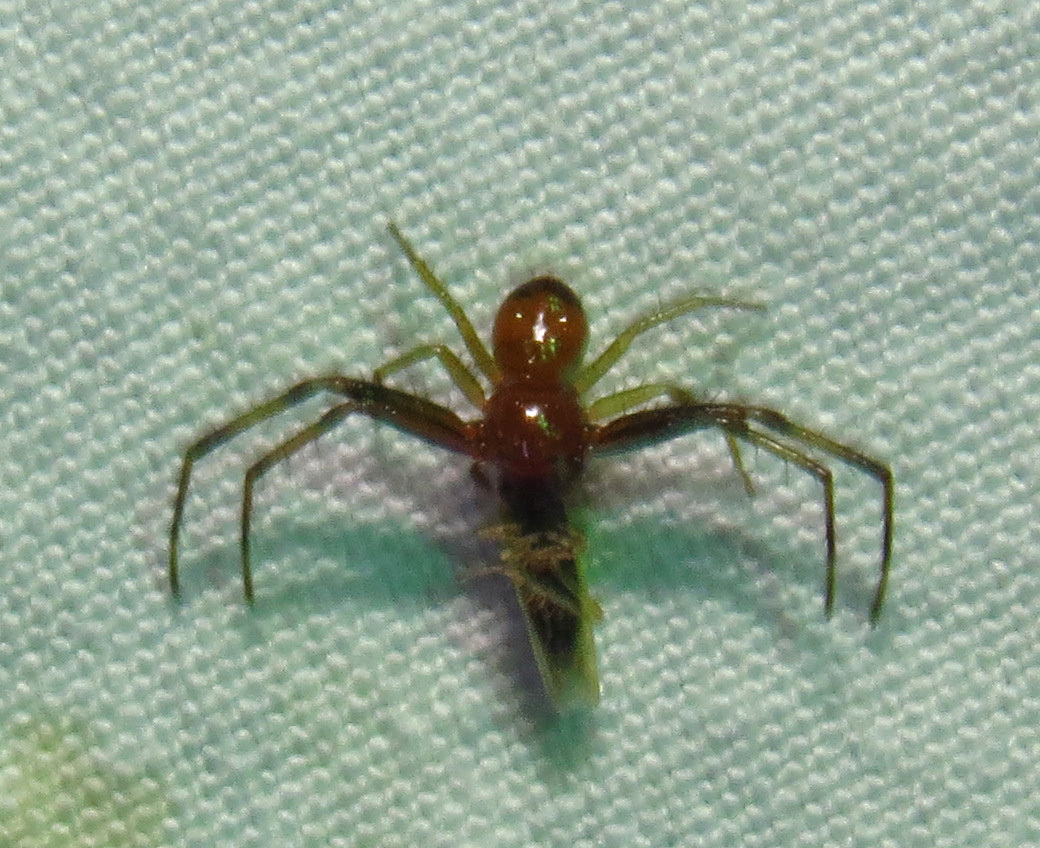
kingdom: Animalia
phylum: Arthropoda
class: Arachnida
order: Araneae
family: Thomisidae
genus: Synema
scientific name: Synema parvulum
